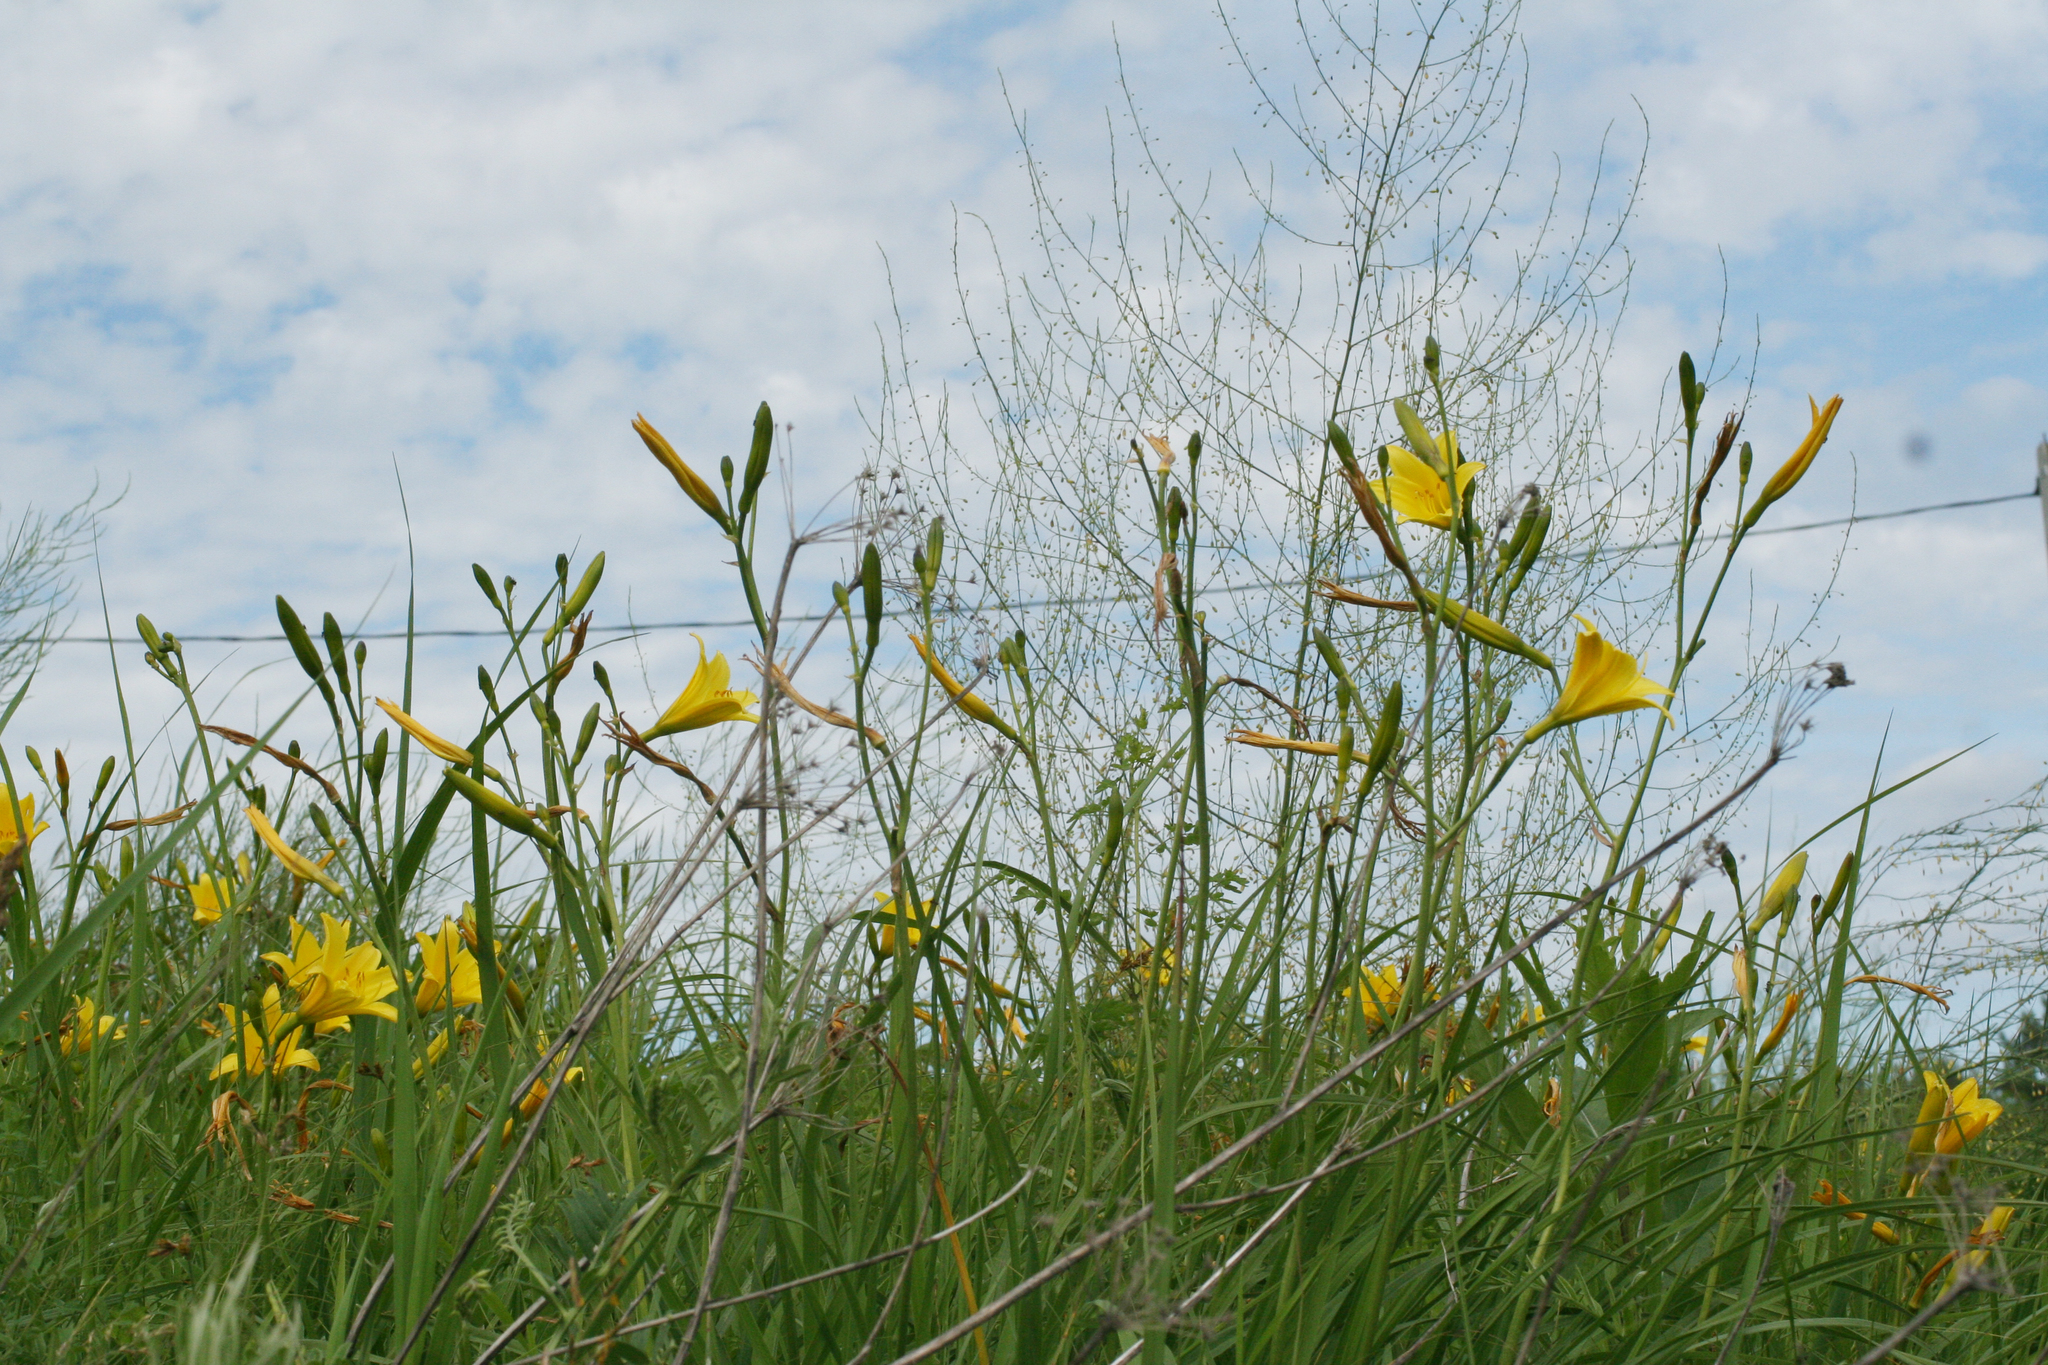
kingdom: Plantae
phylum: Tracheophyta
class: Liliopsida
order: Asparagales
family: Asphodelaceae
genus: Hemerocallis
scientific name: Hemerocallis minor
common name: Small daylily
